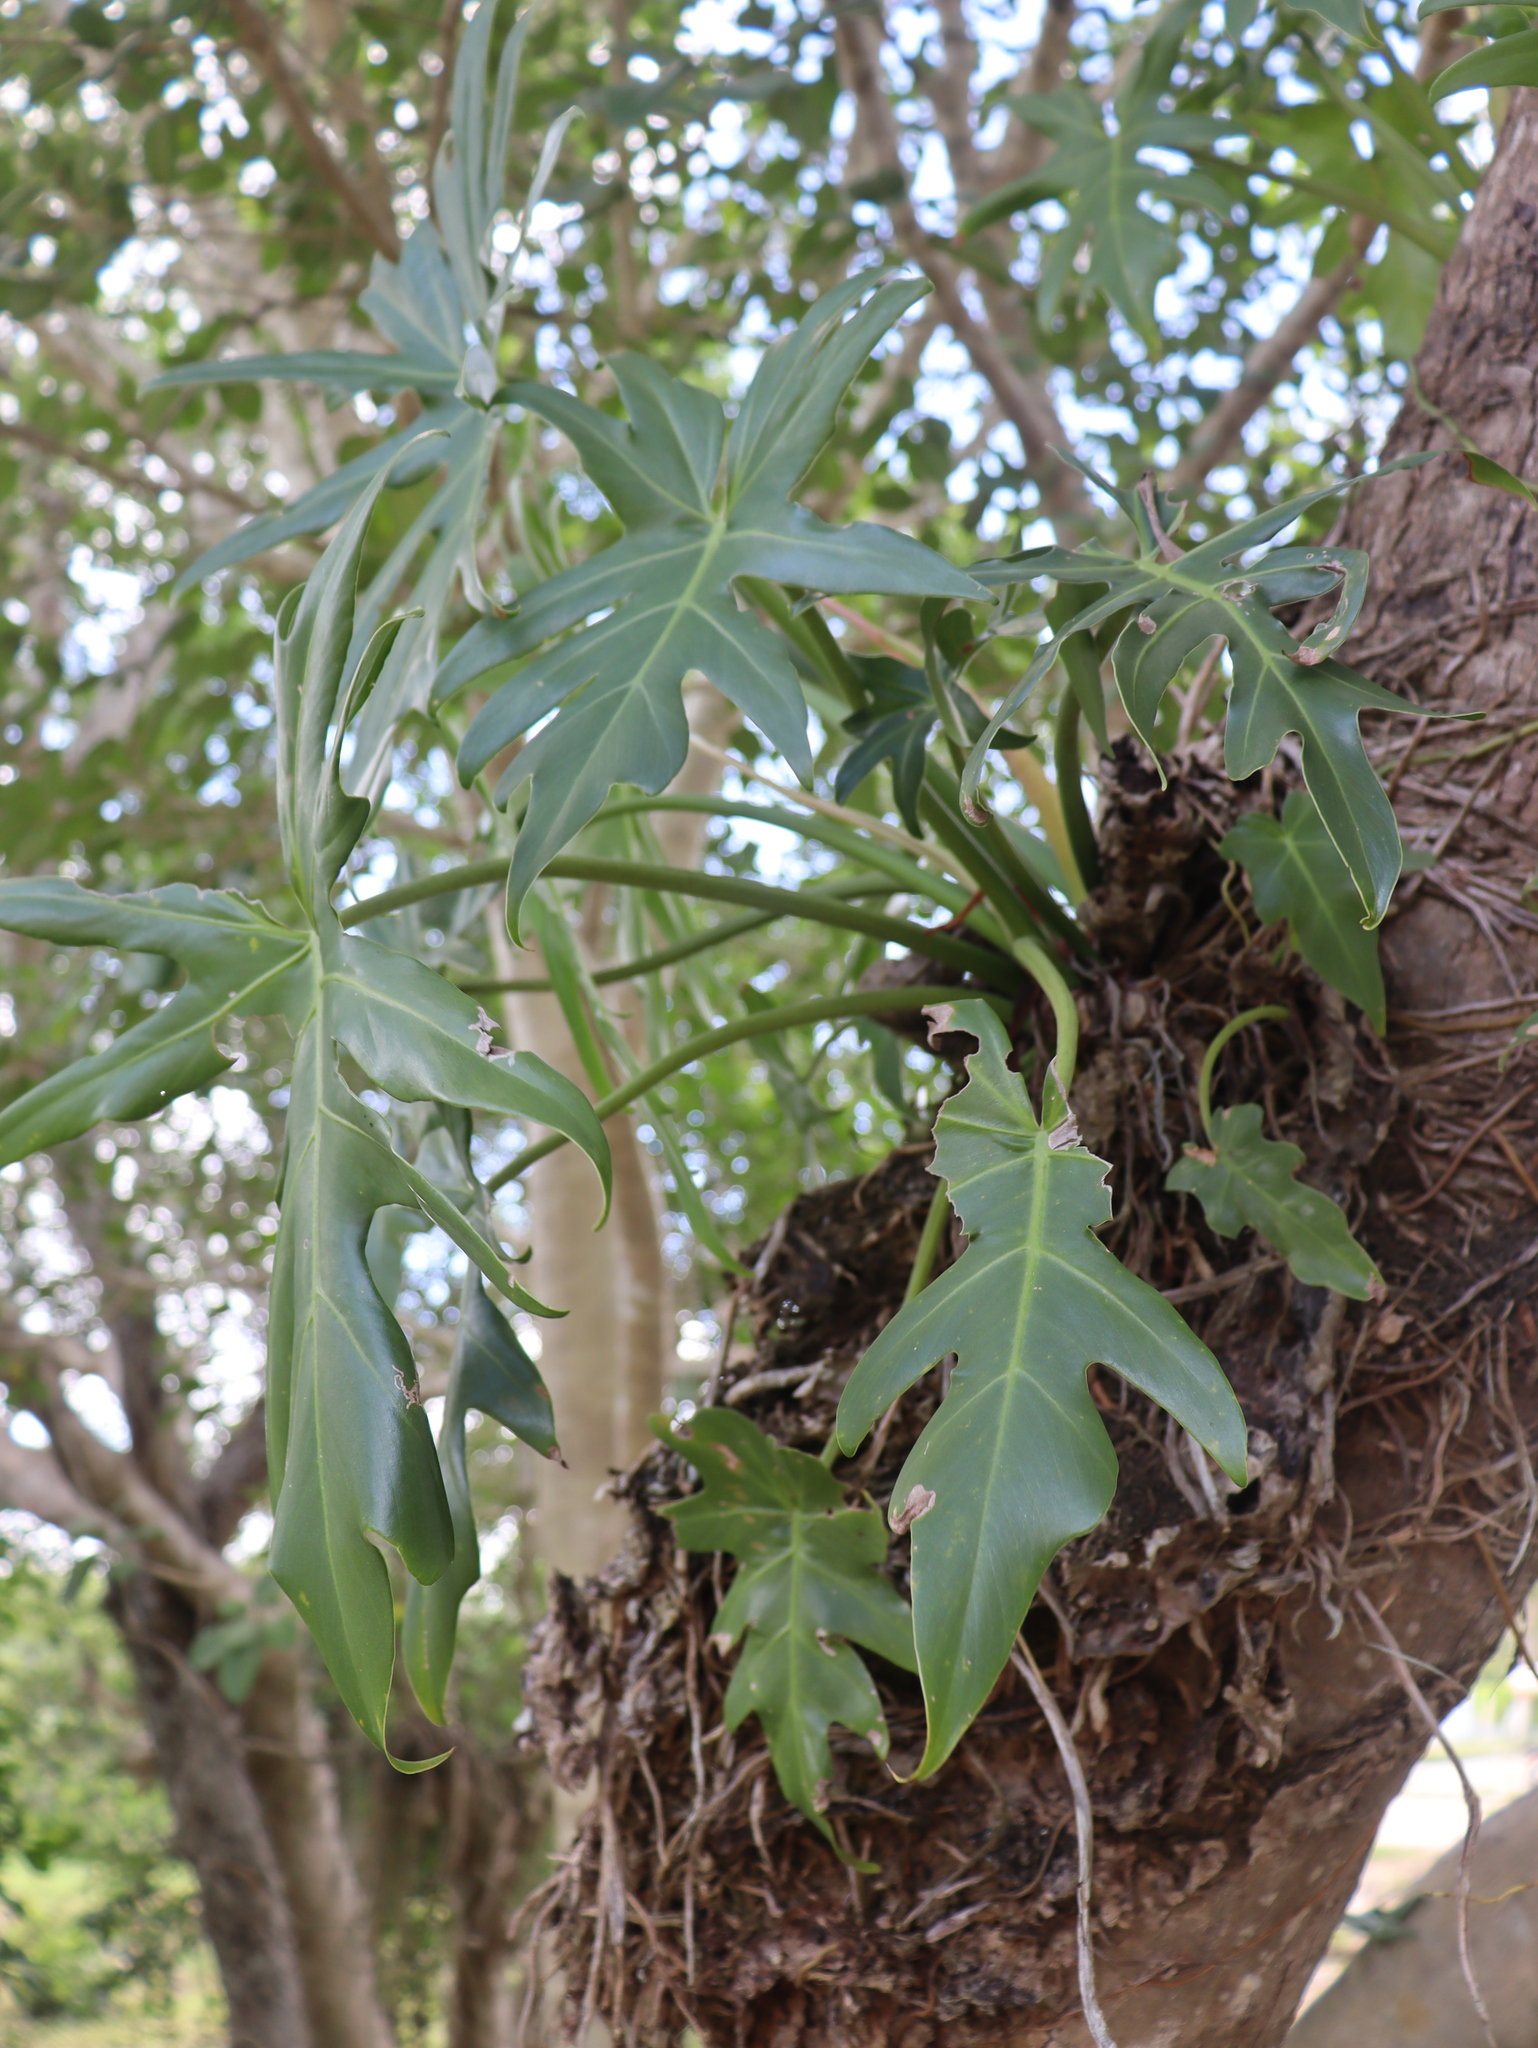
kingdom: Plantae
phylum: Tracheophyta
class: Liliopsida
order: Alismatales
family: Araceae
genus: Philodendron
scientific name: Philodendron radiatum
